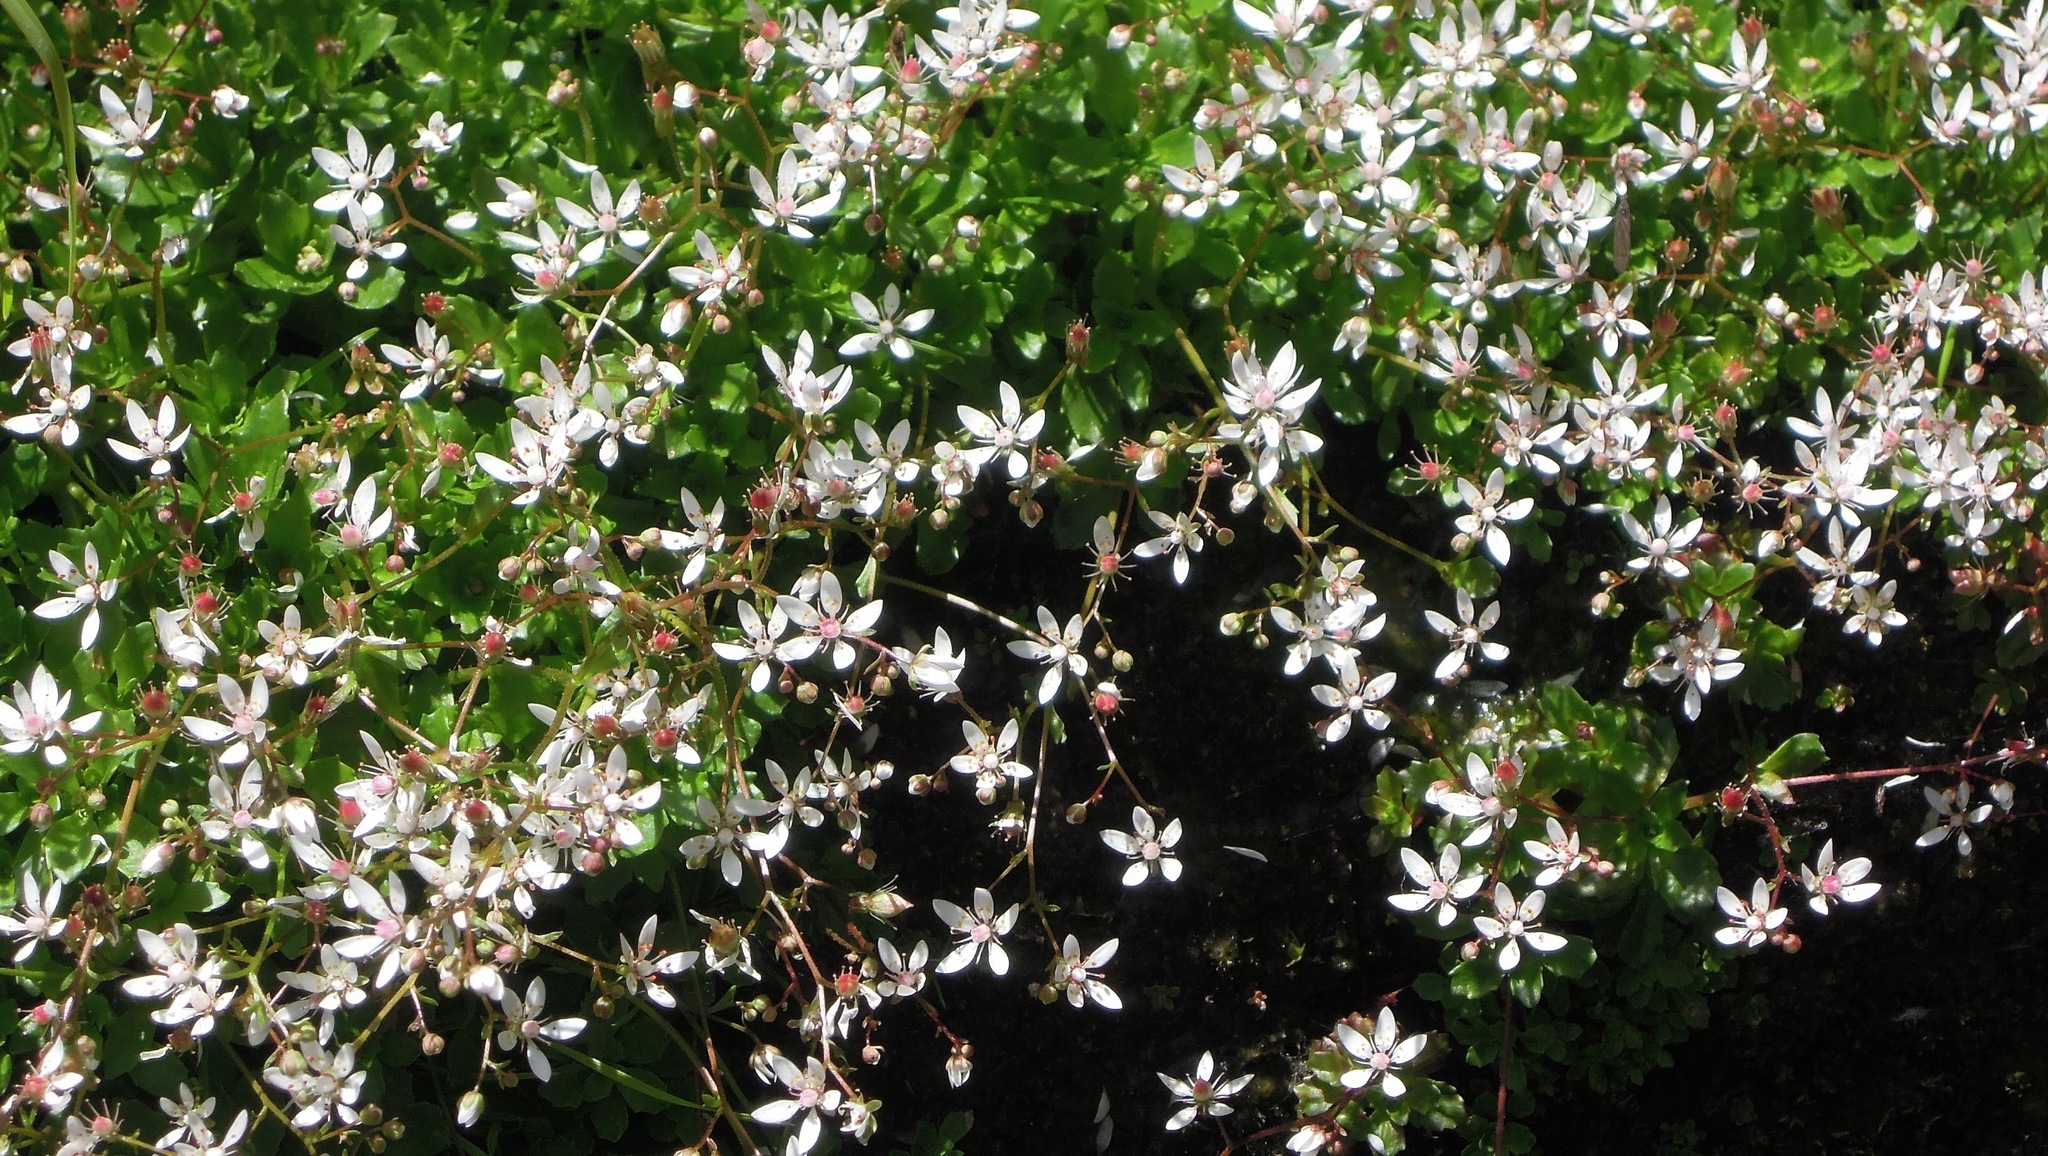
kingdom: Plantae
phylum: Tracheophyta
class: Magnoliopsida
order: Saxifragales
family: Saxifragaceae
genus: Micranthes
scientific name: Micranthes stellaris
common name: Starry saxifrage
